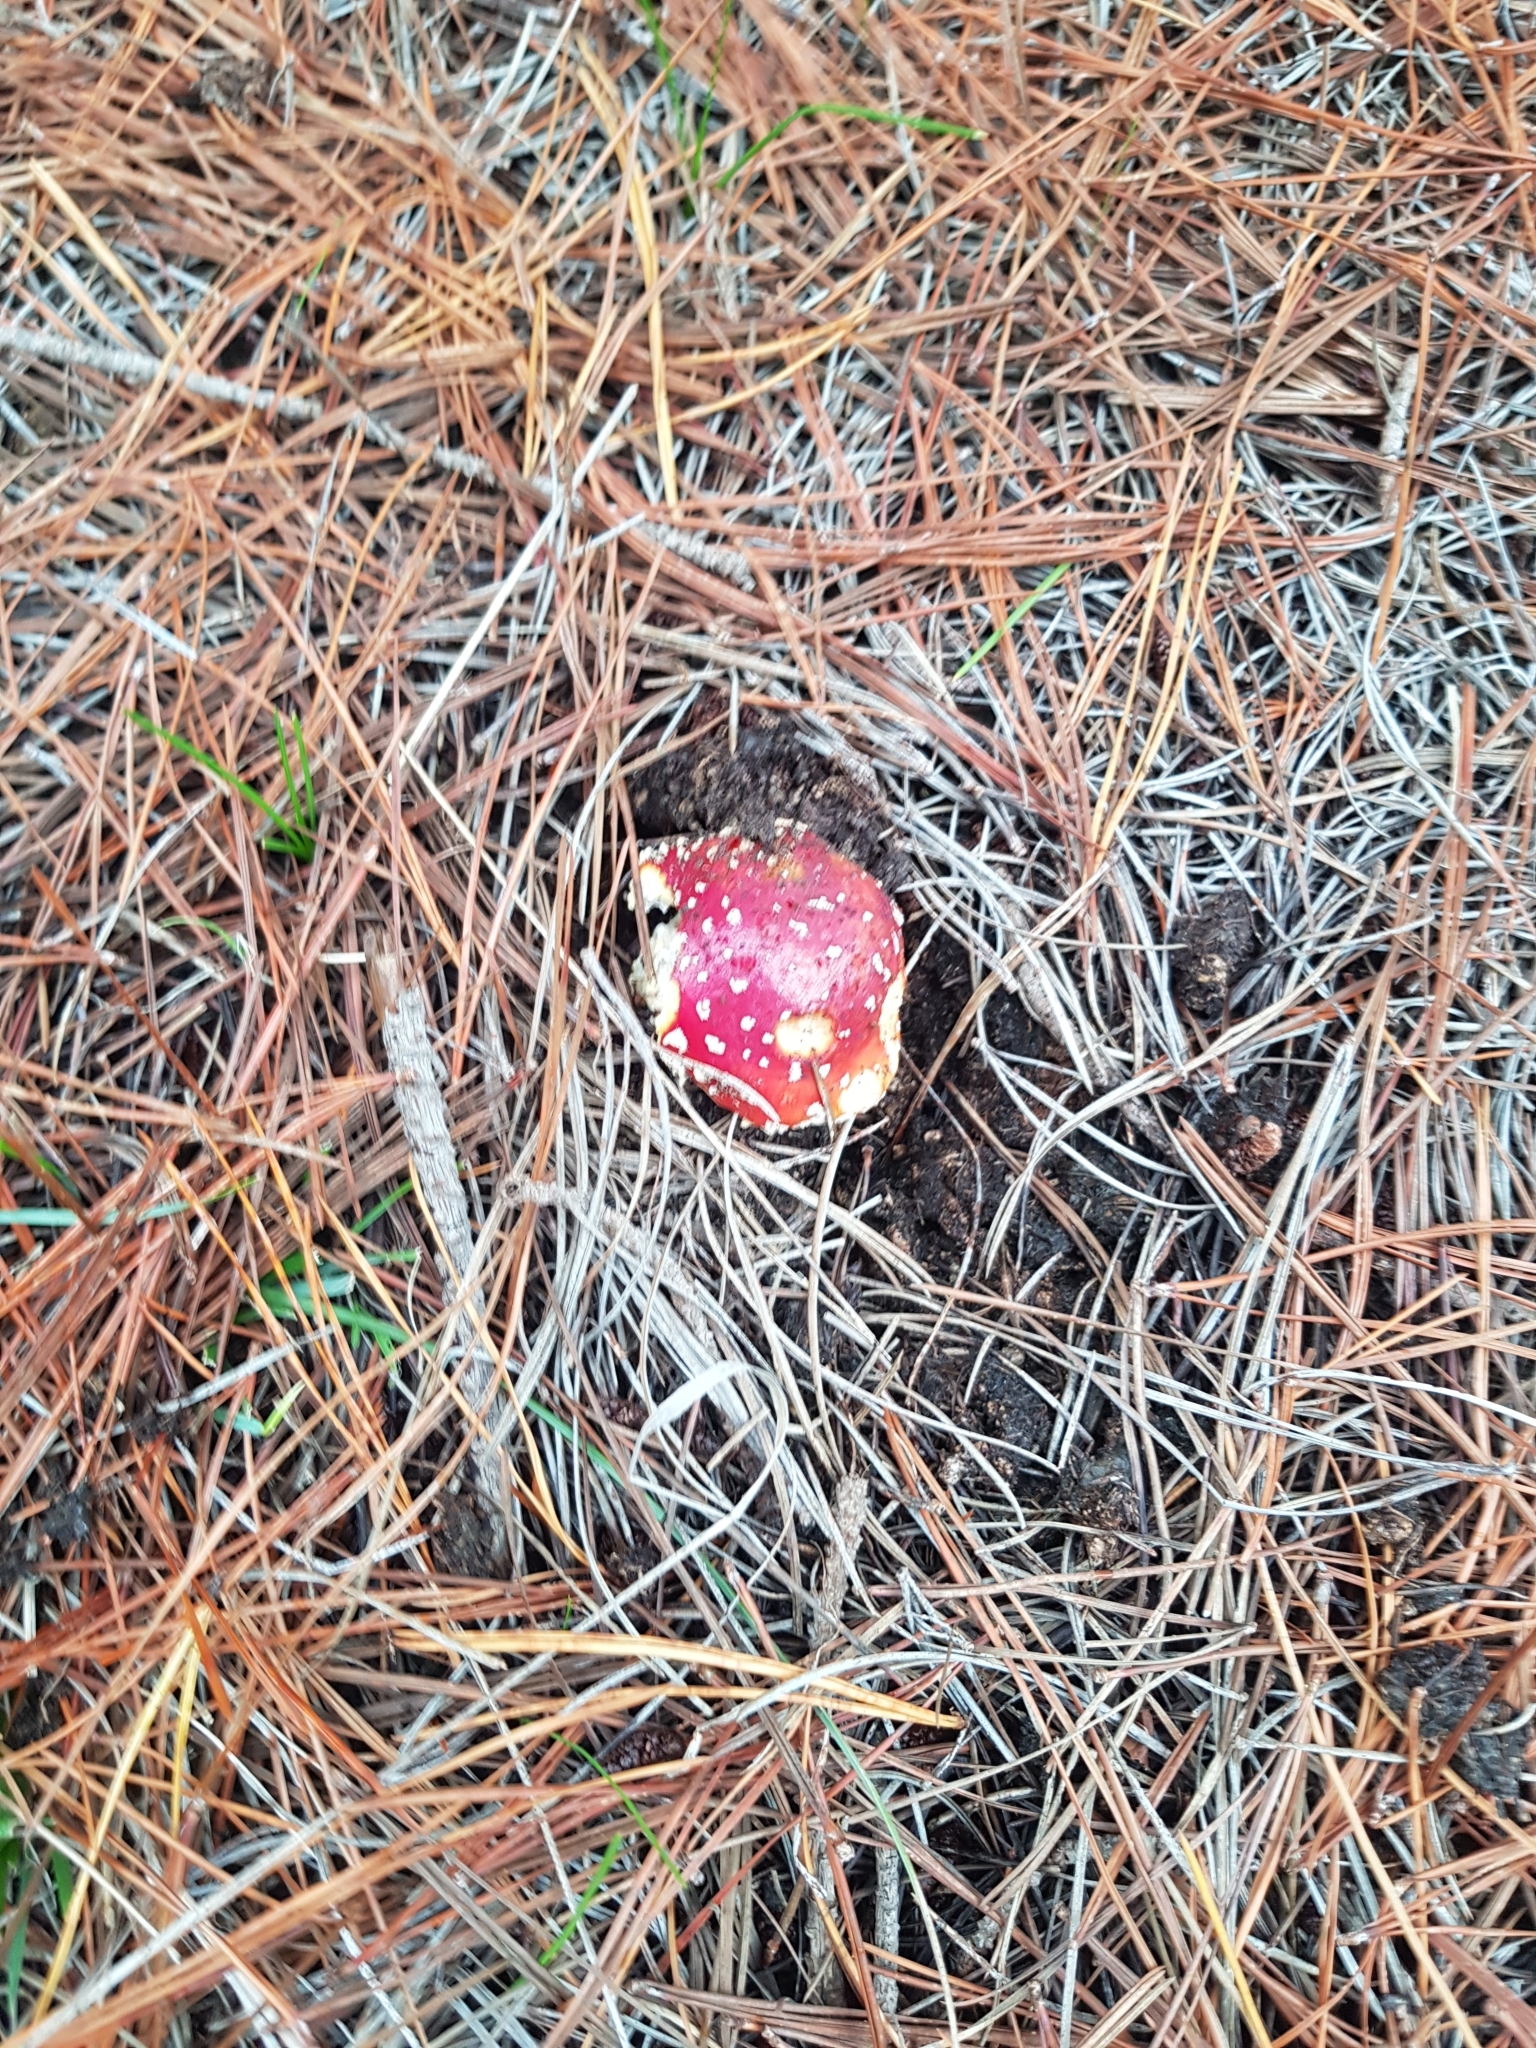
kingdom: Fungi
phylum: Basidiomycota
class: Agaricomycetes
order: Agaricales
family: Amanitaceae
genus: Amanita
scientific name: Amanita muscaria
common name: Fly agaric
